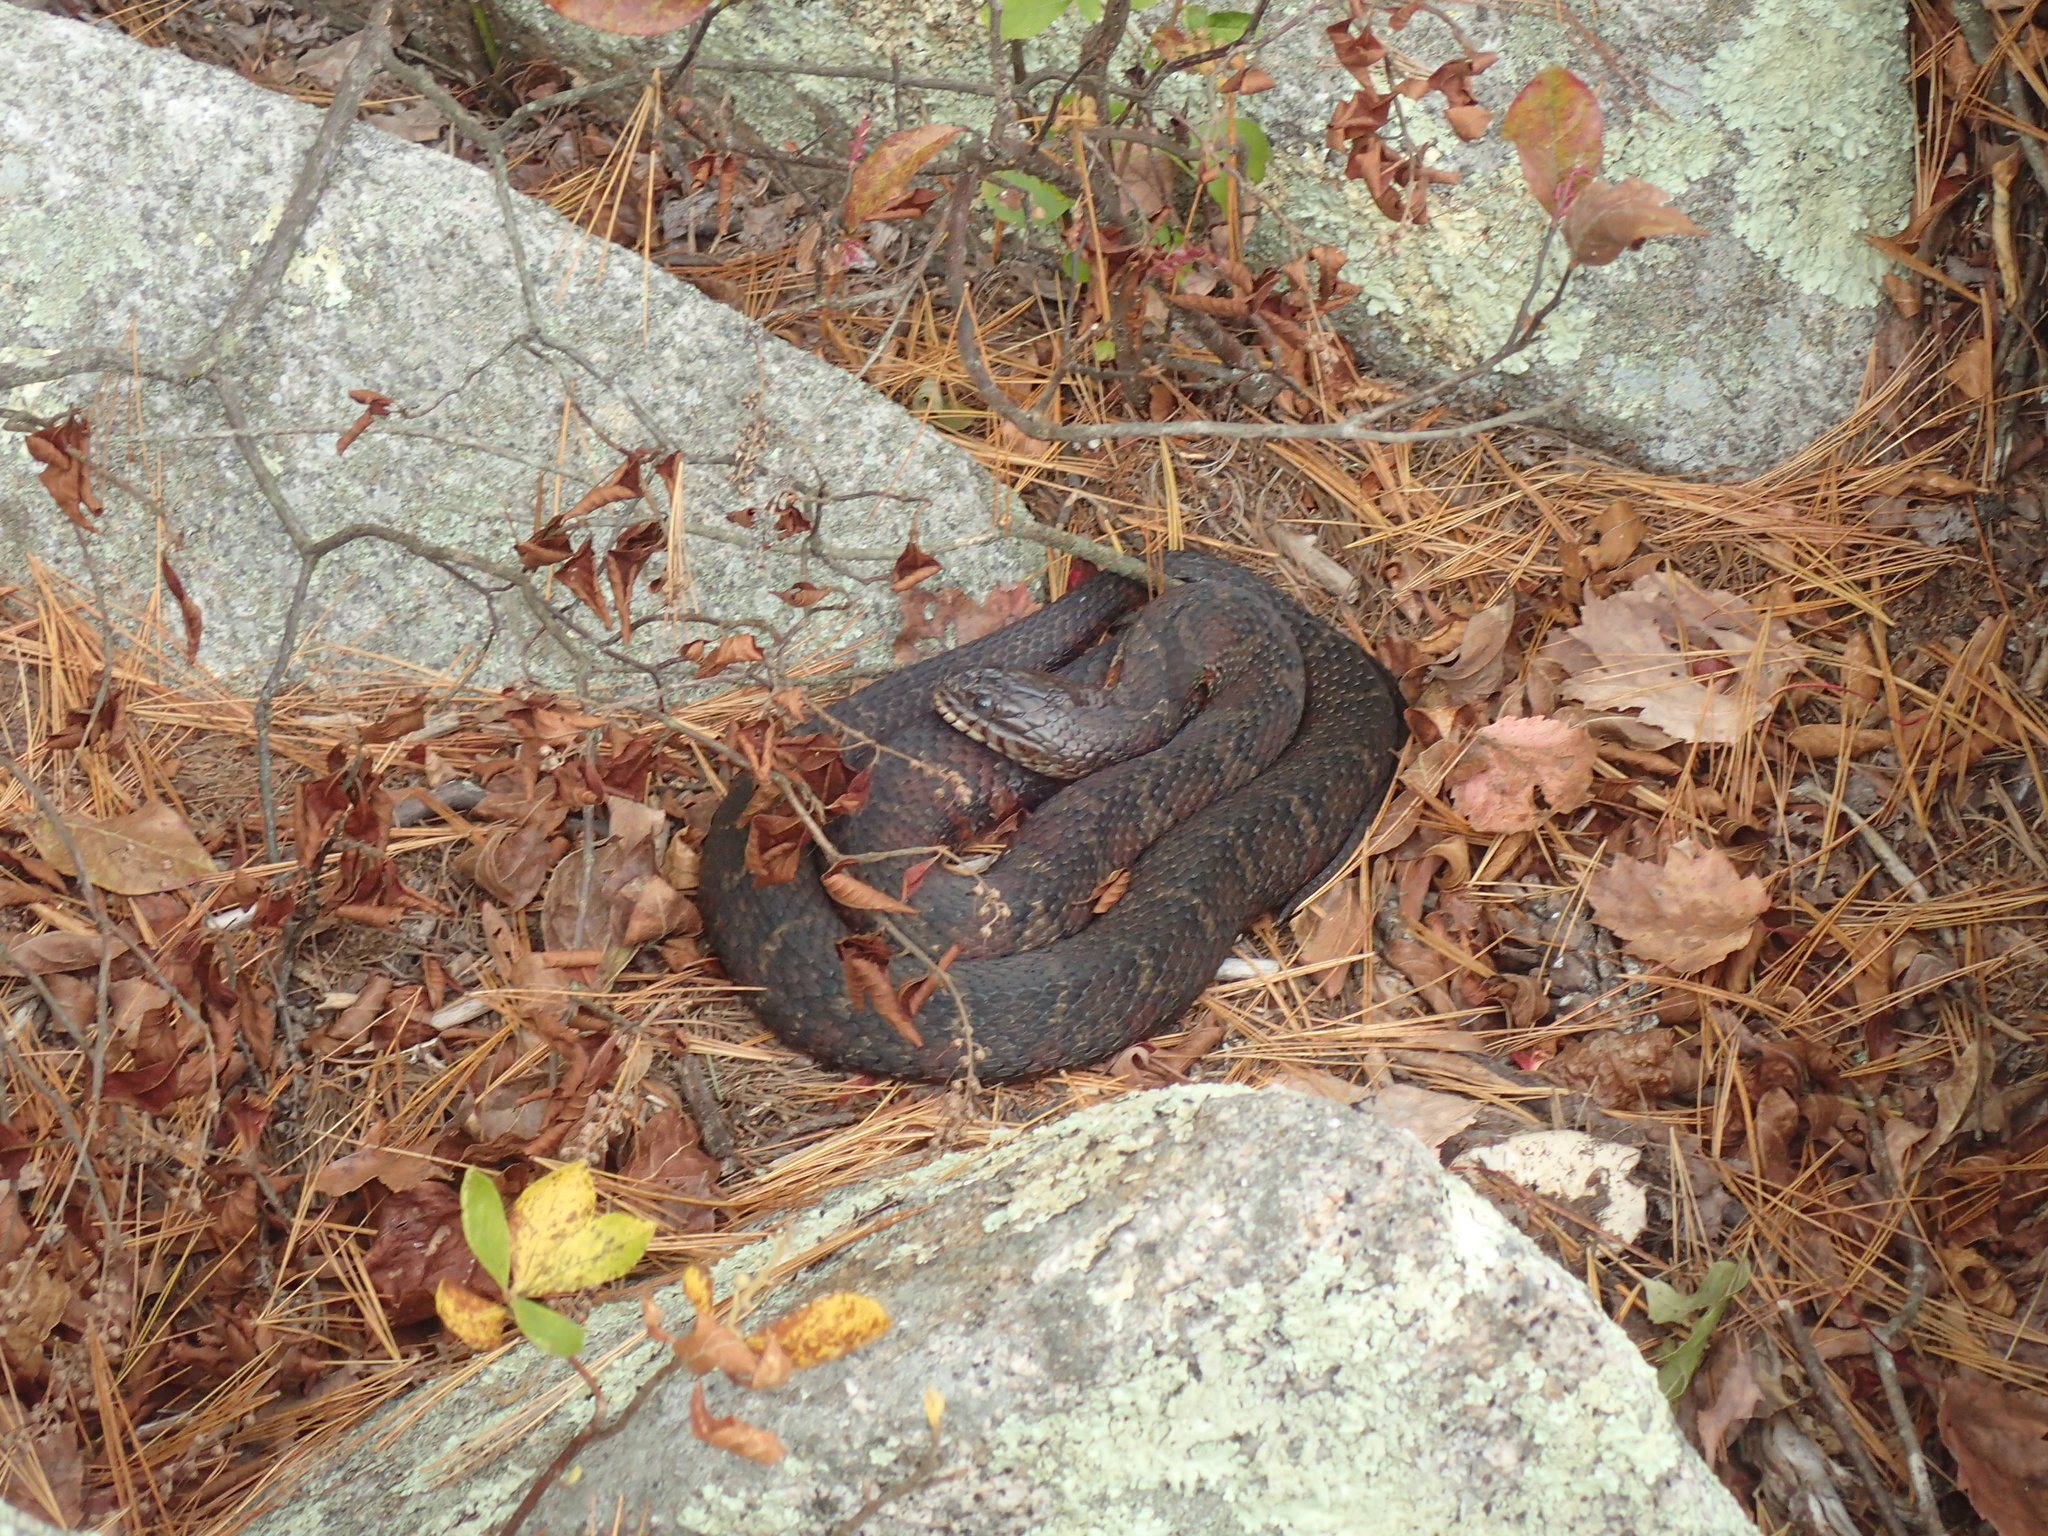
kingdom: Animalia
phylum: Chordata
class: Squamata
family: Colubridae
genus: Nerodia
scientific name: Nerodia sipedon
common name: Northern water snake
